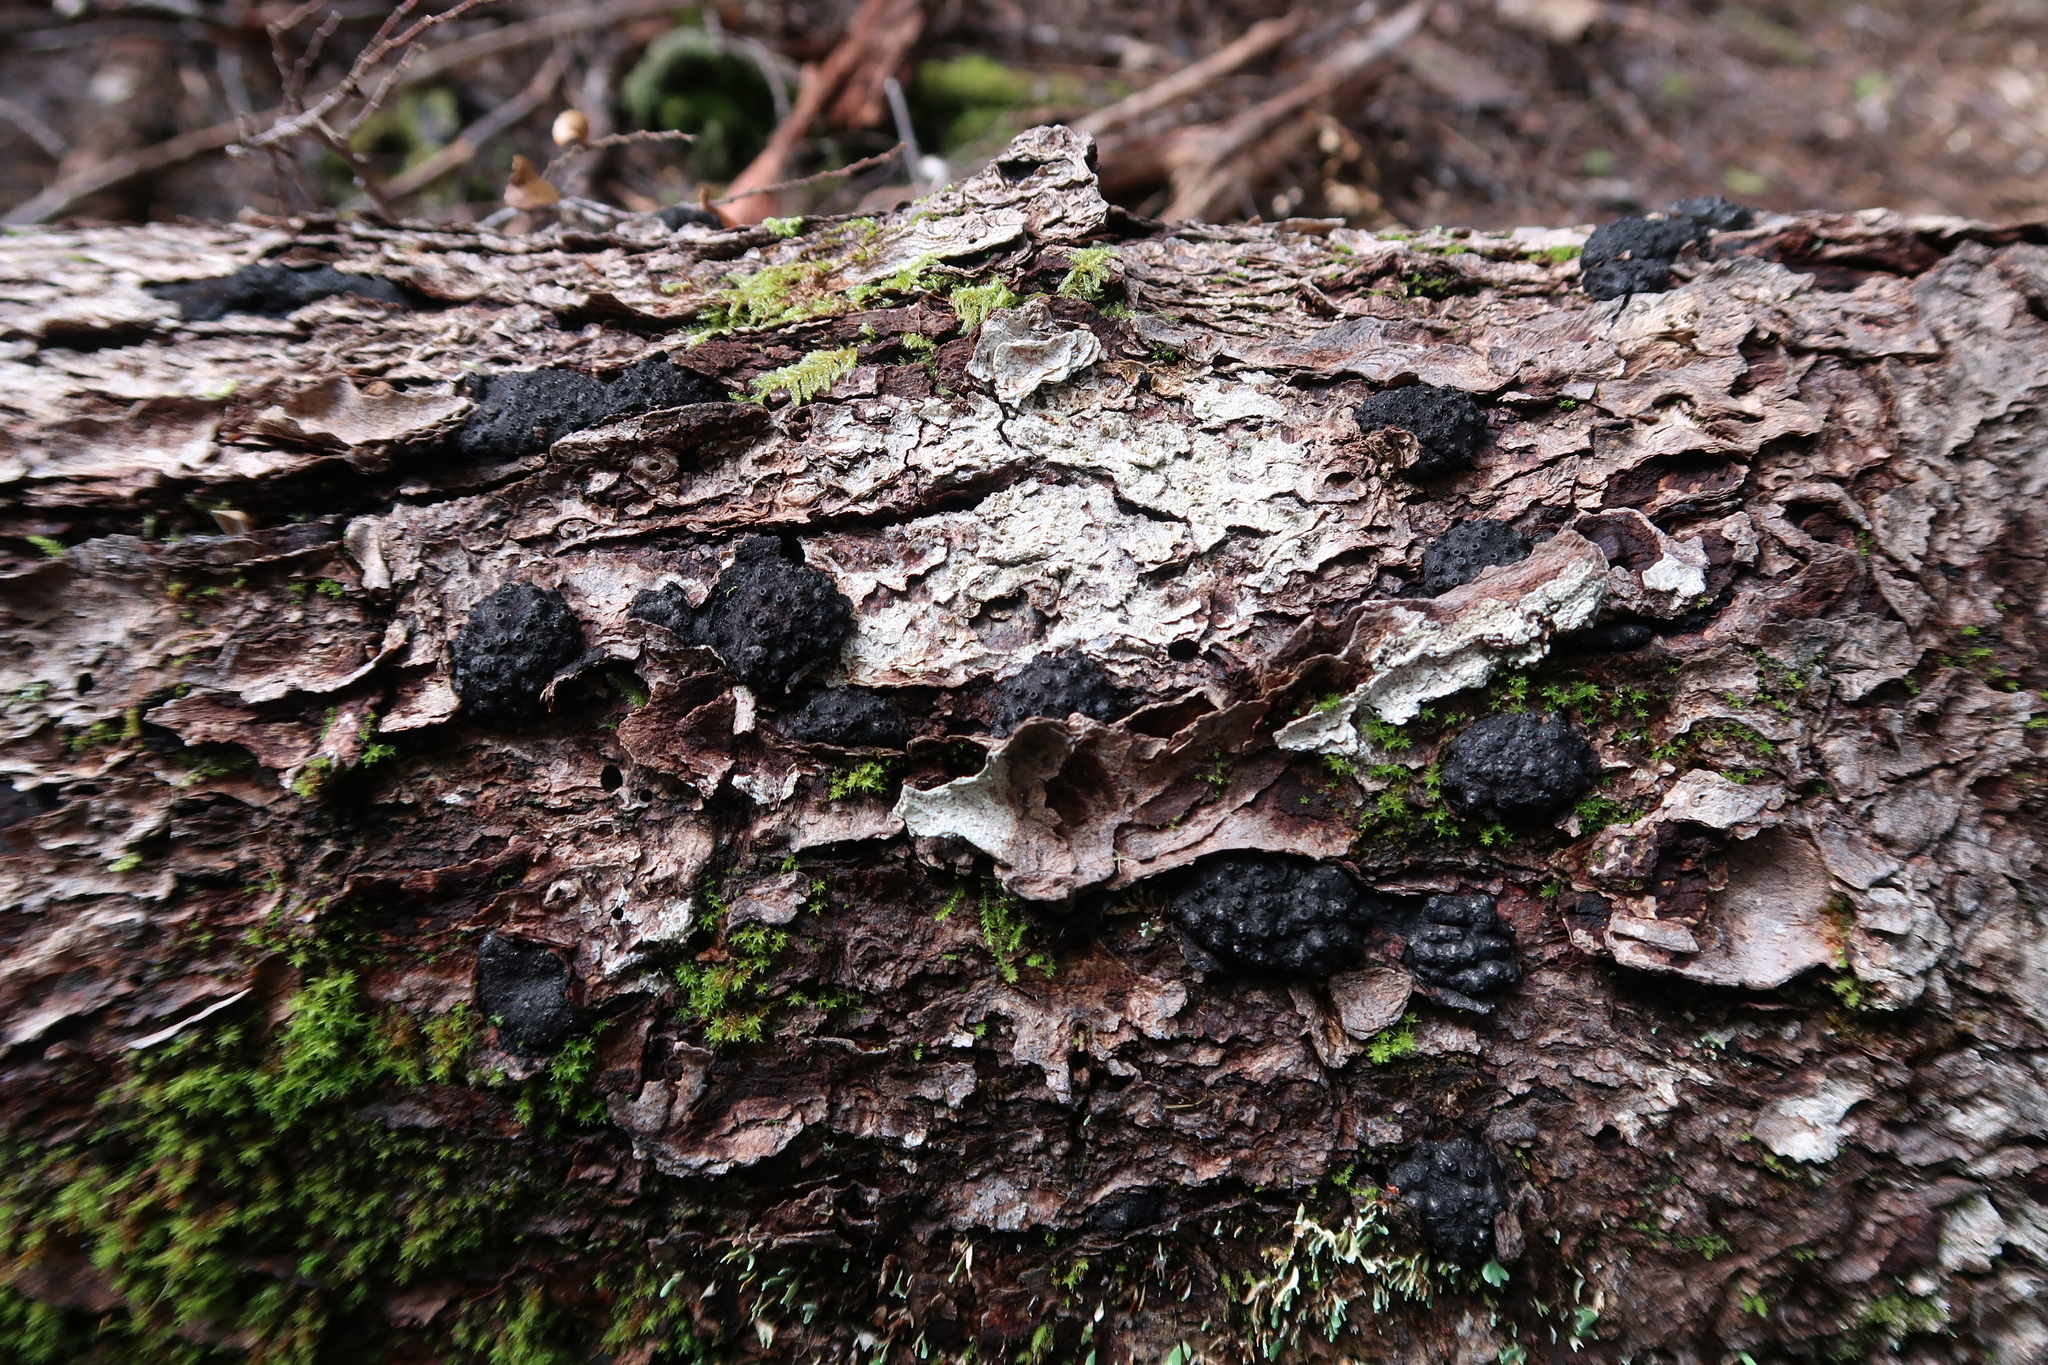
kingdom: Fungi
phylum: Ascomycota
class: Sordariomycetes
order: Xylariales
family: Hypoxylaceae
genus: Annulohypoxylon
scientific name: Annulohypoxylon hians
